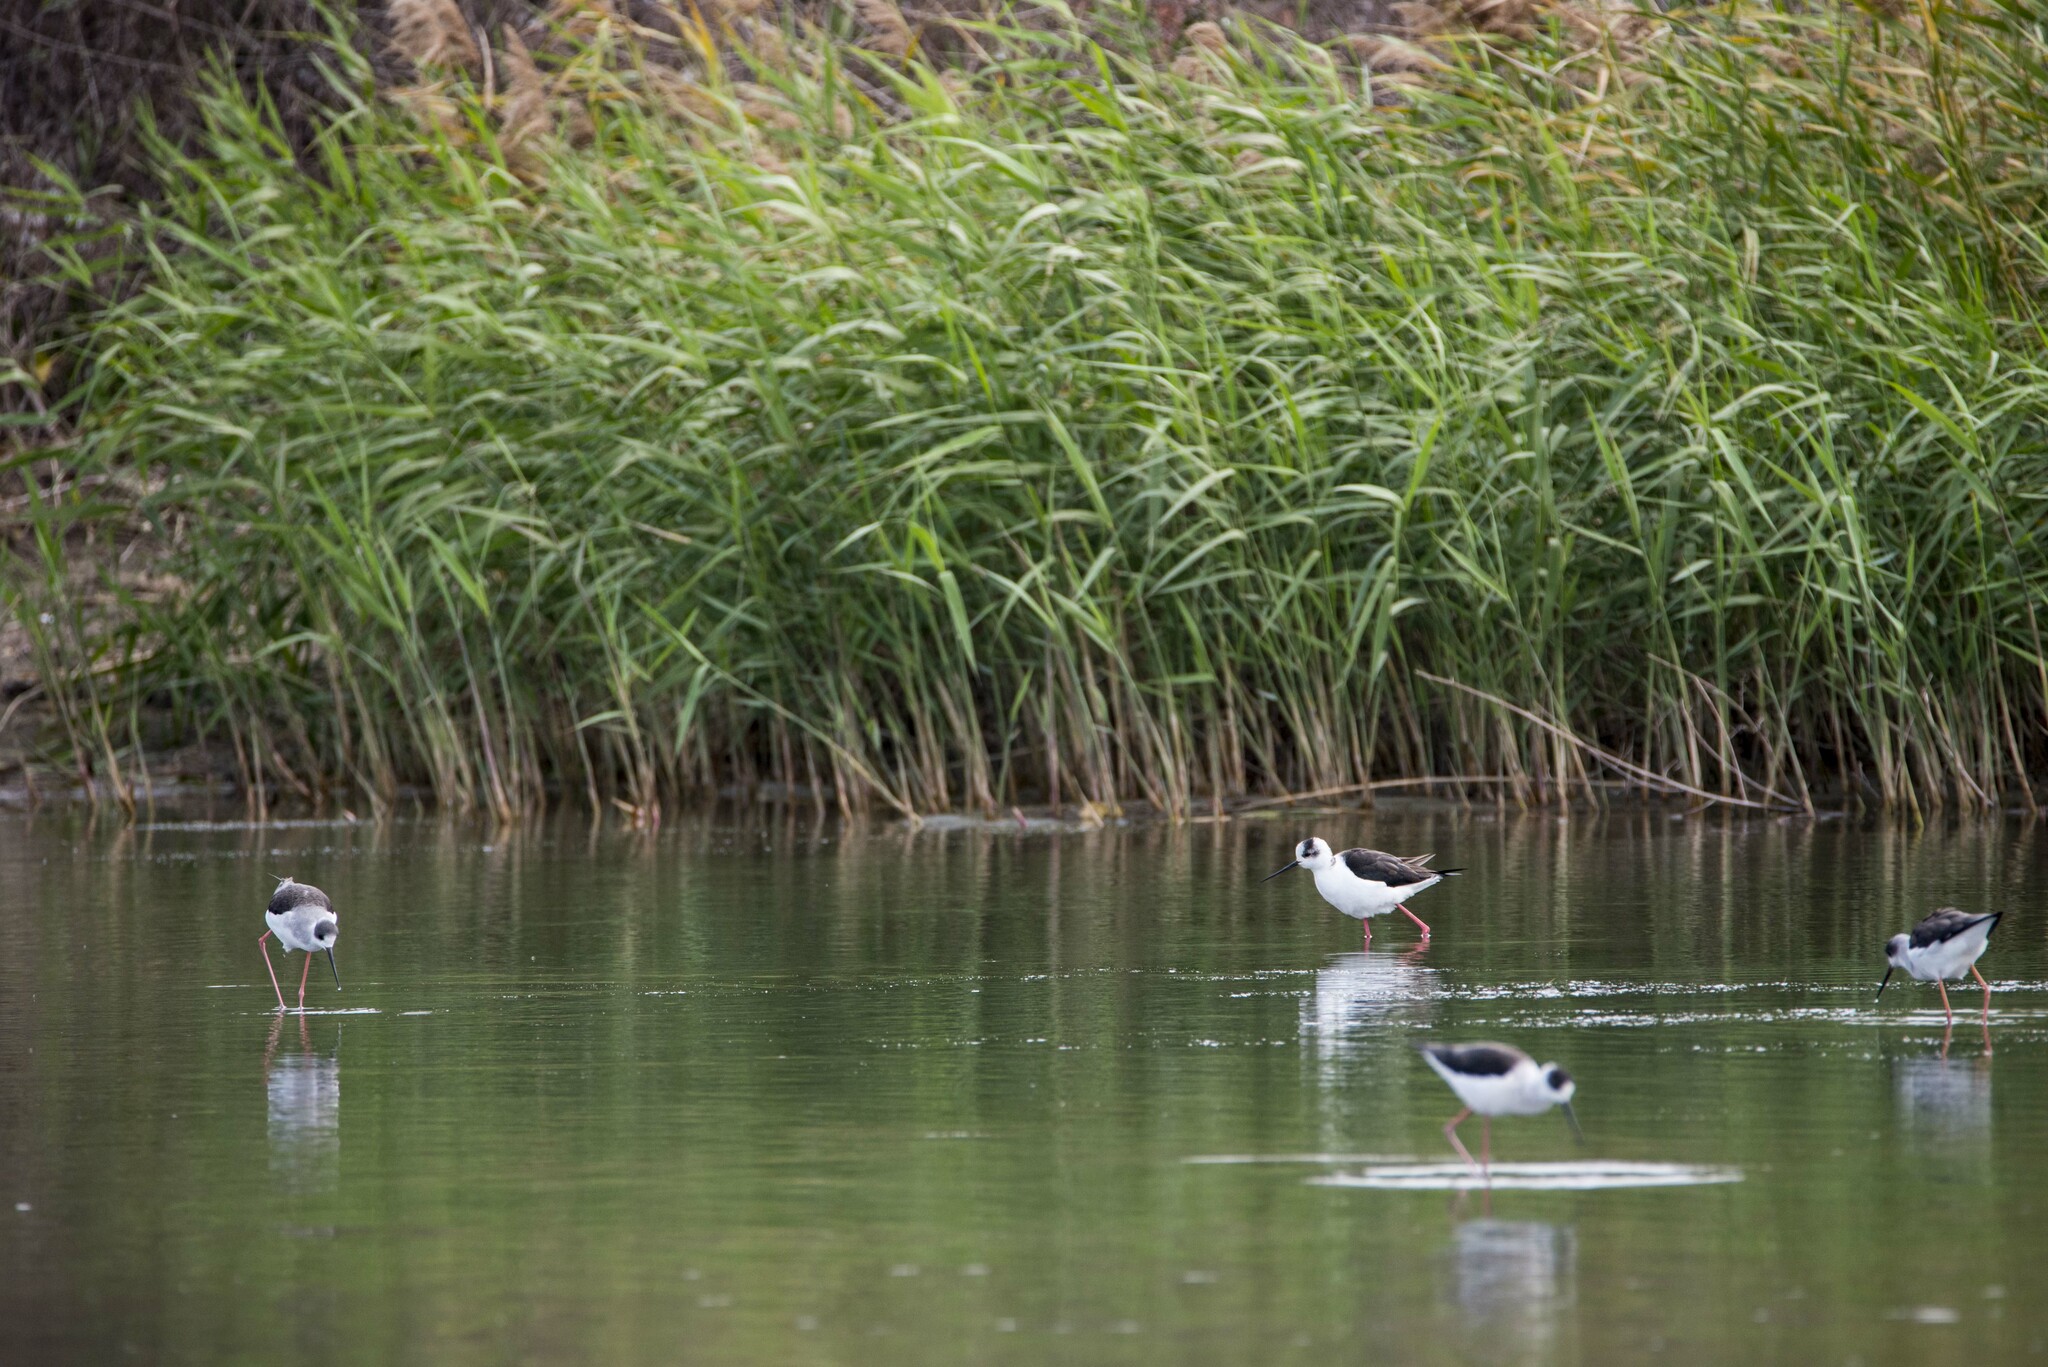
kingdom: Animalia
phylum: Chordata
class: Aves
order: Charadriiformes
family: Recurvirostridae
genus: Himantopus
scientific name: Himantopus himantopus
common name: Black-winged stilt
